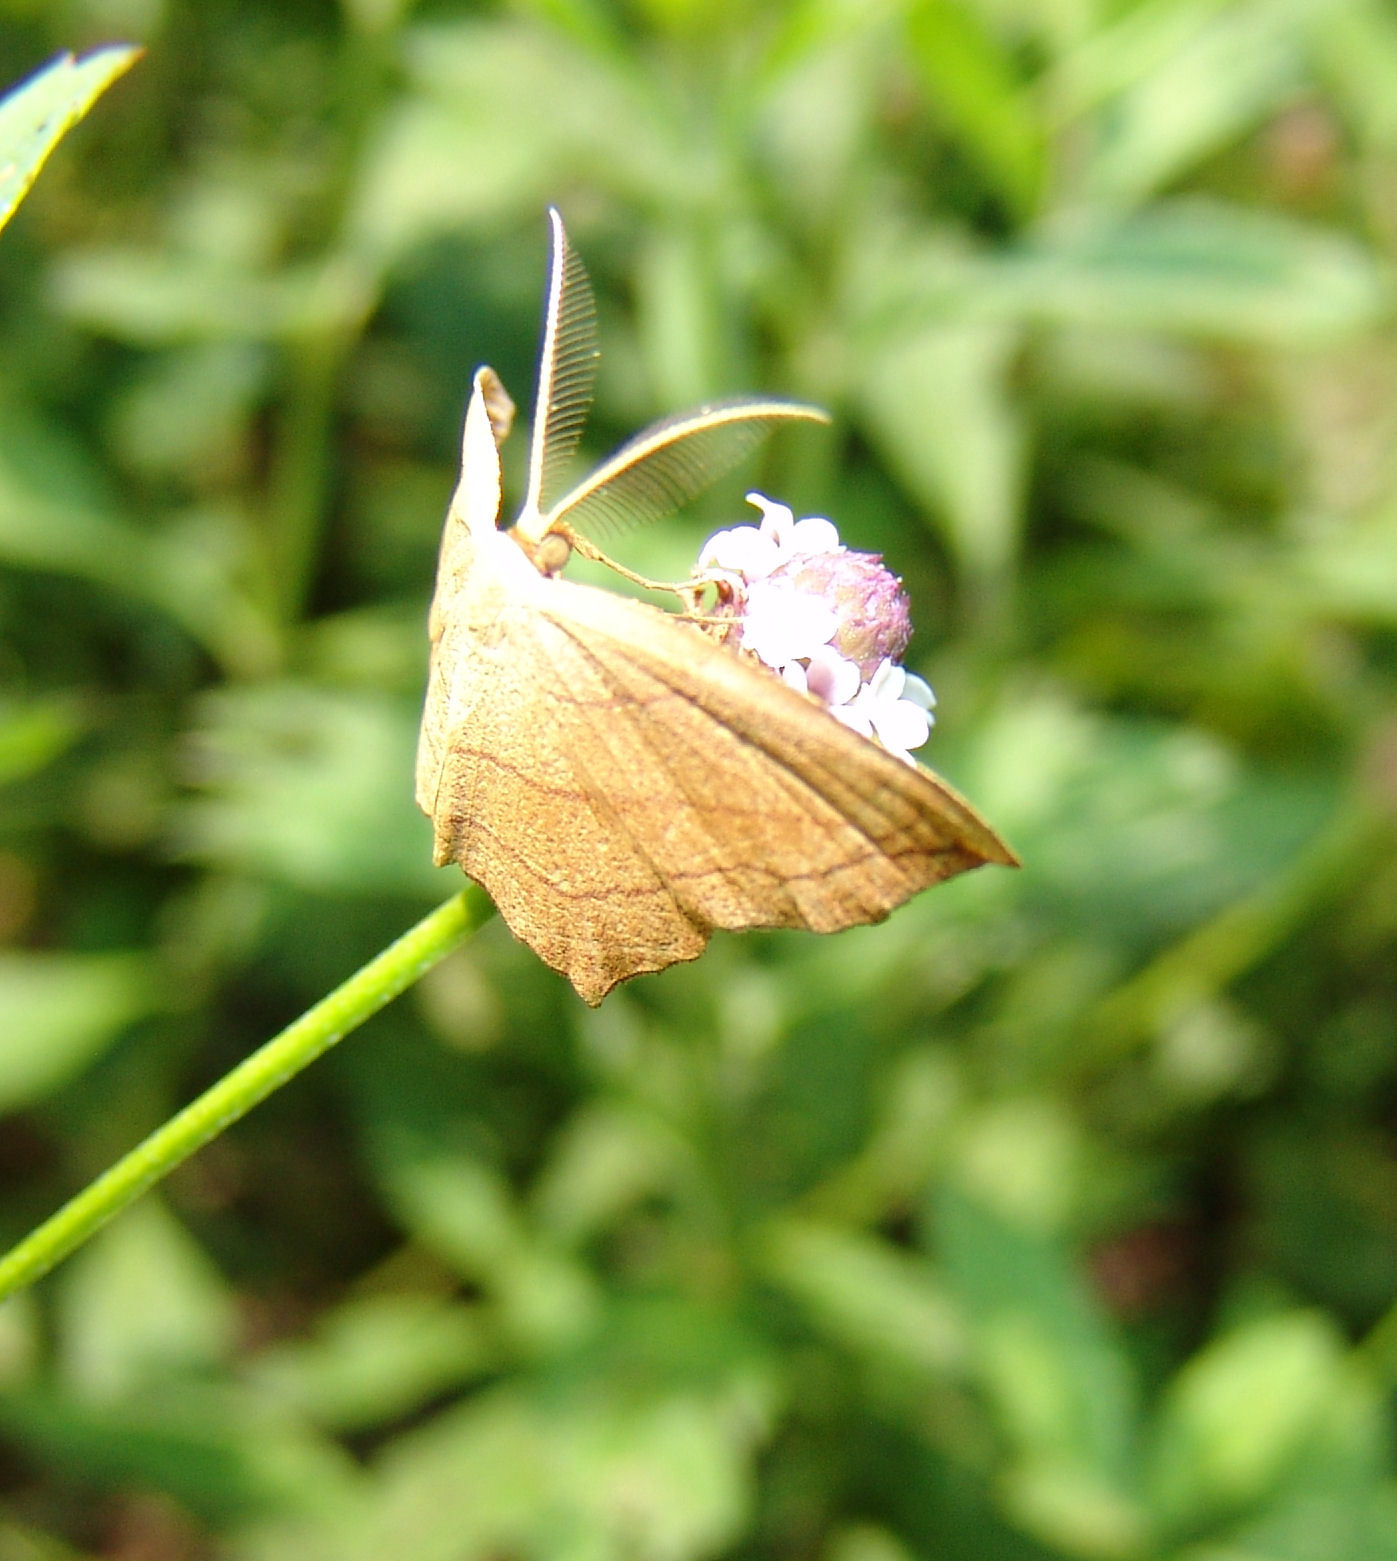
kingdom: Animalia
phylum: Arthropoda
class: Insecta
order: Lepidoptera
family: Geometridae
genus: Timandra
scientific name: Timandra amaturaria
